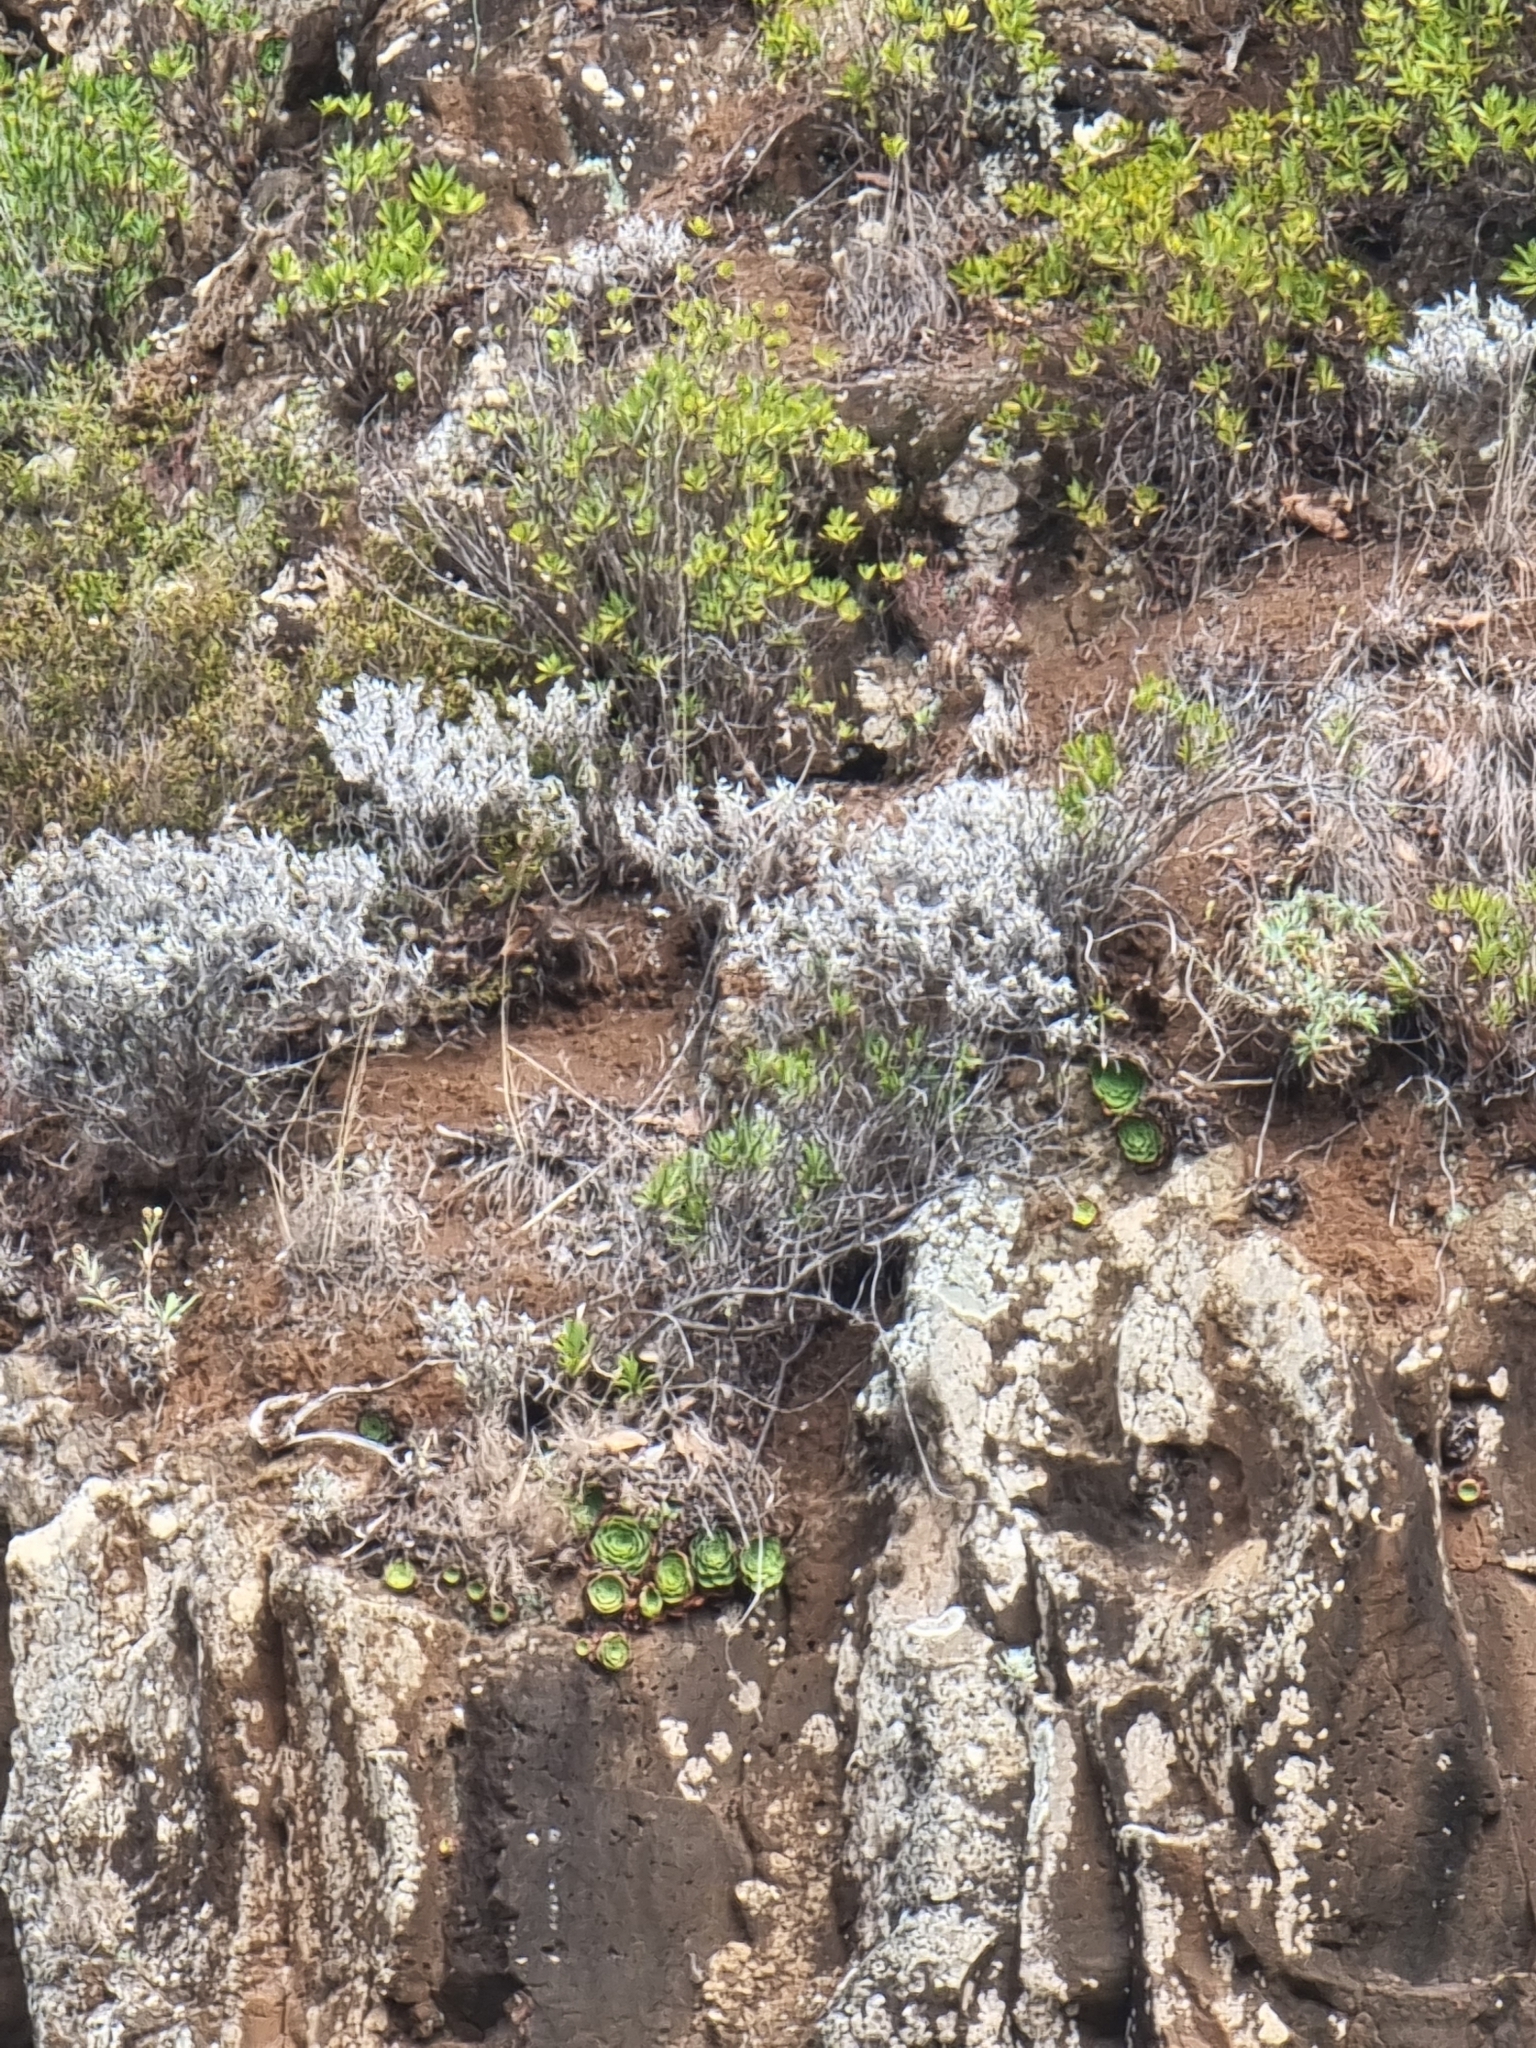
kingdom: Plantae
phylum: Tracheophyta
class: Magnoliopsida
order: Asterales
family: Asteraceae
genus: Helichrysum
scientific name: Helichrysum melaleucum
